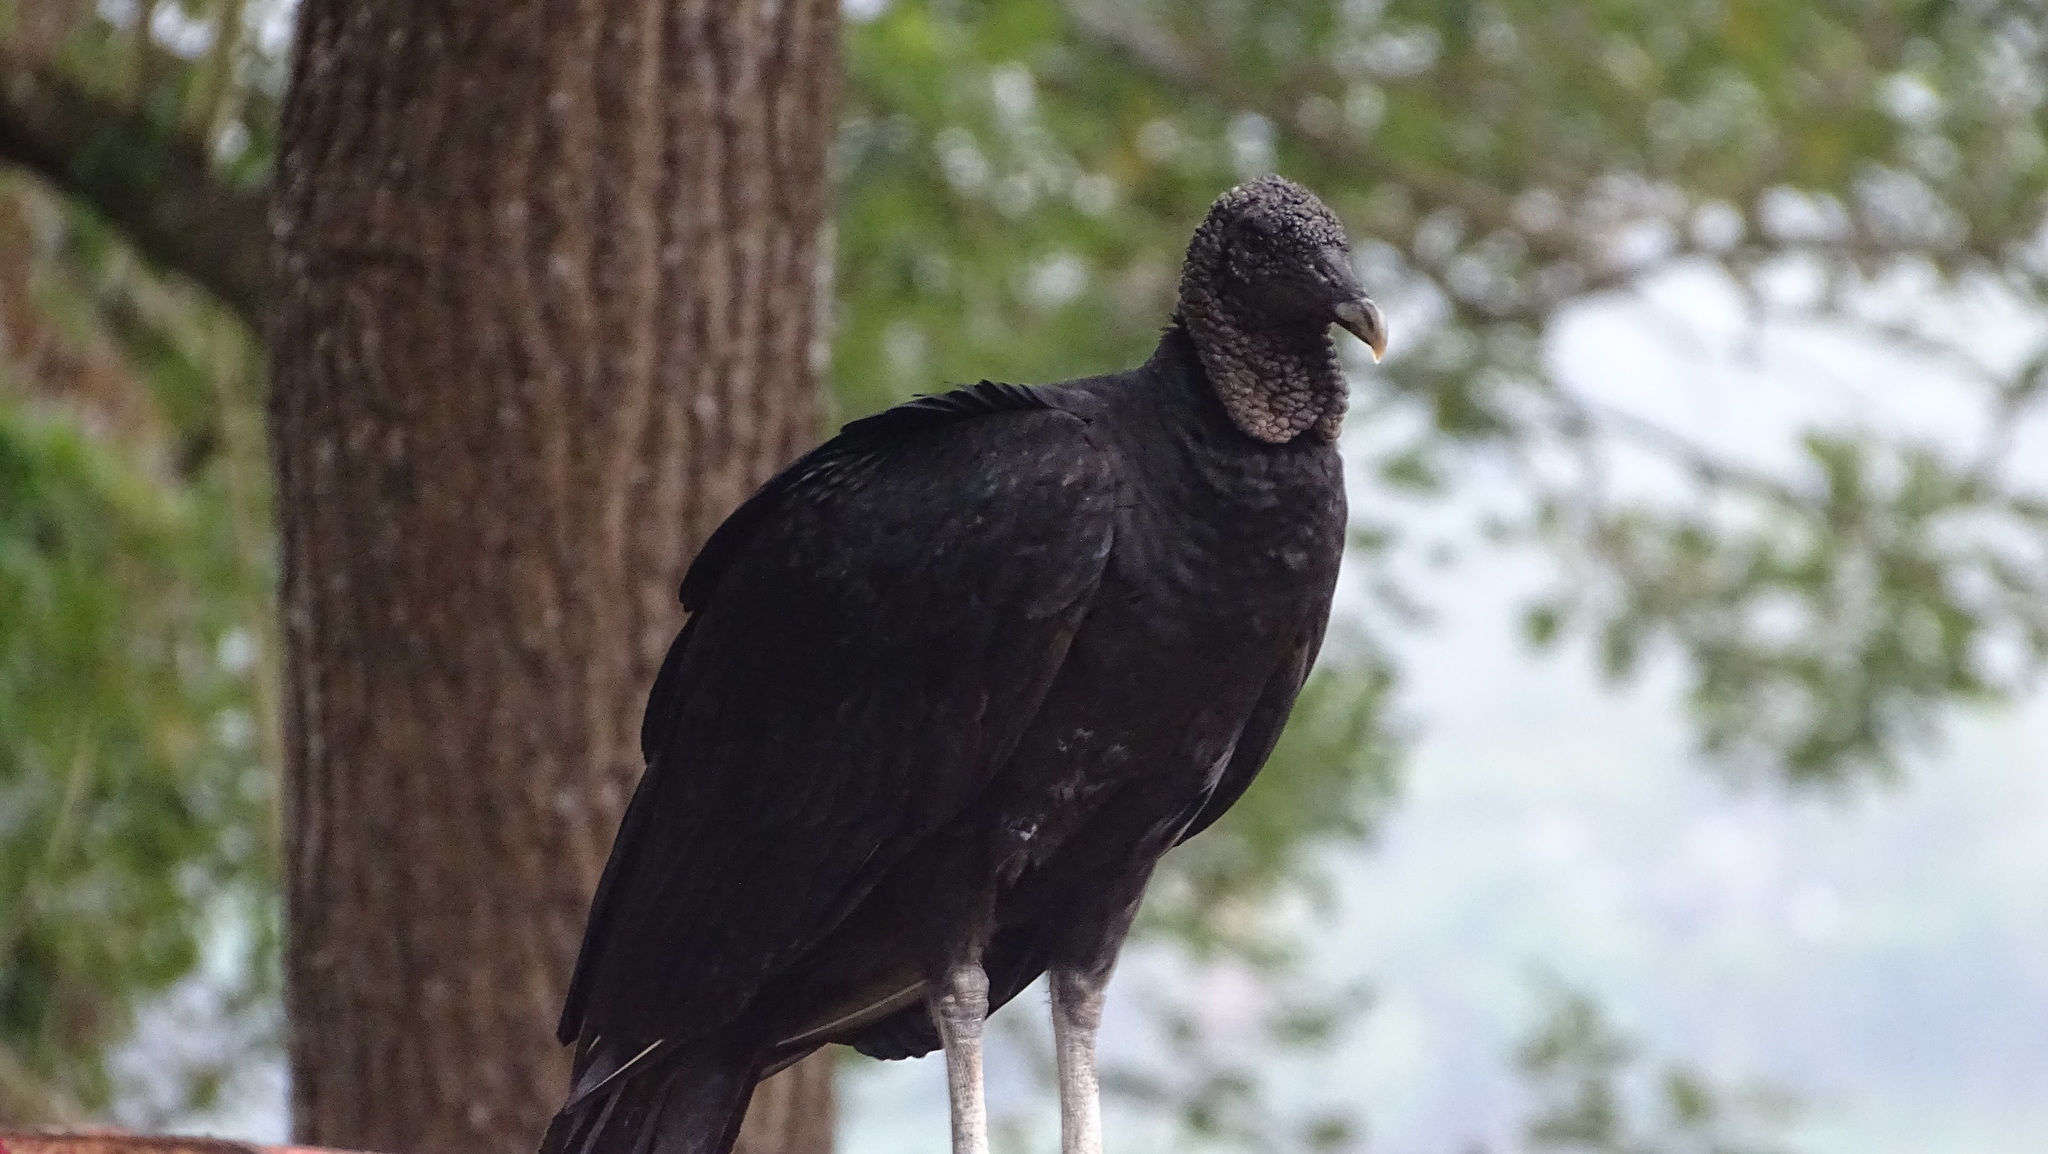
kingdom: Animalia
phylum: Chordata
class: Aves
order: Accipitriformes
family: Cathartidae
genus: Coragyps
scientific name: Coragyps atratus
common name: Black vulture
